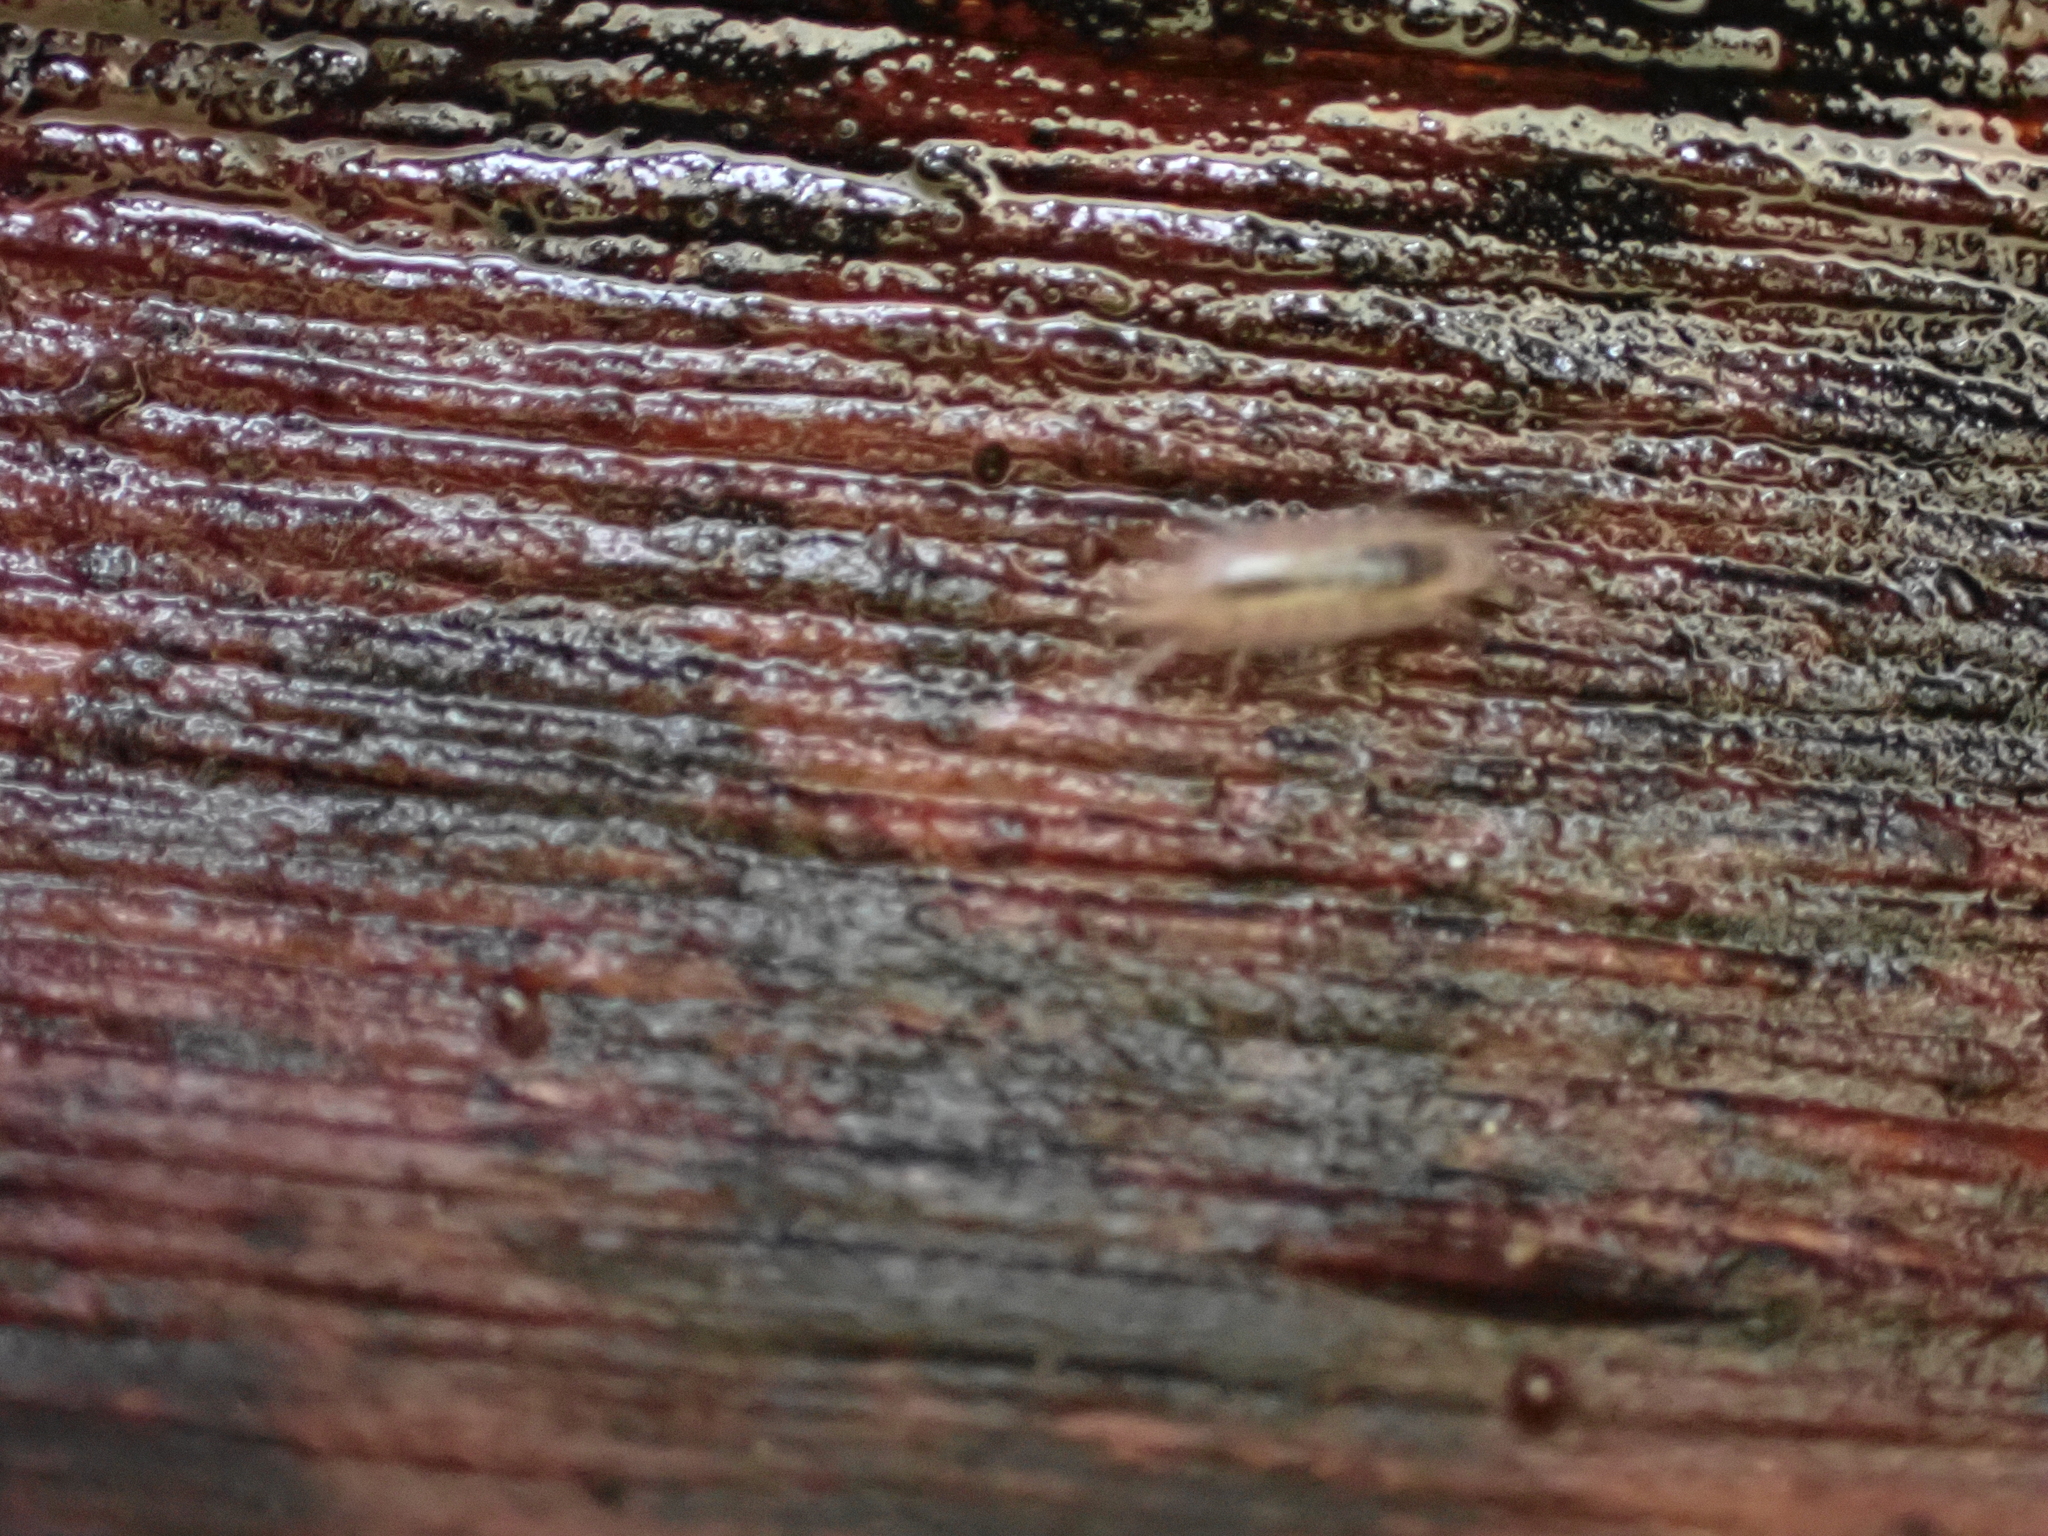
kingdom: Animalia
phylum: Arthropoda
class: Malacostraca
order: Isopoda
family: Philosciidae
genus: Atlantoscia
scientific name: Atlantoscia floridana
